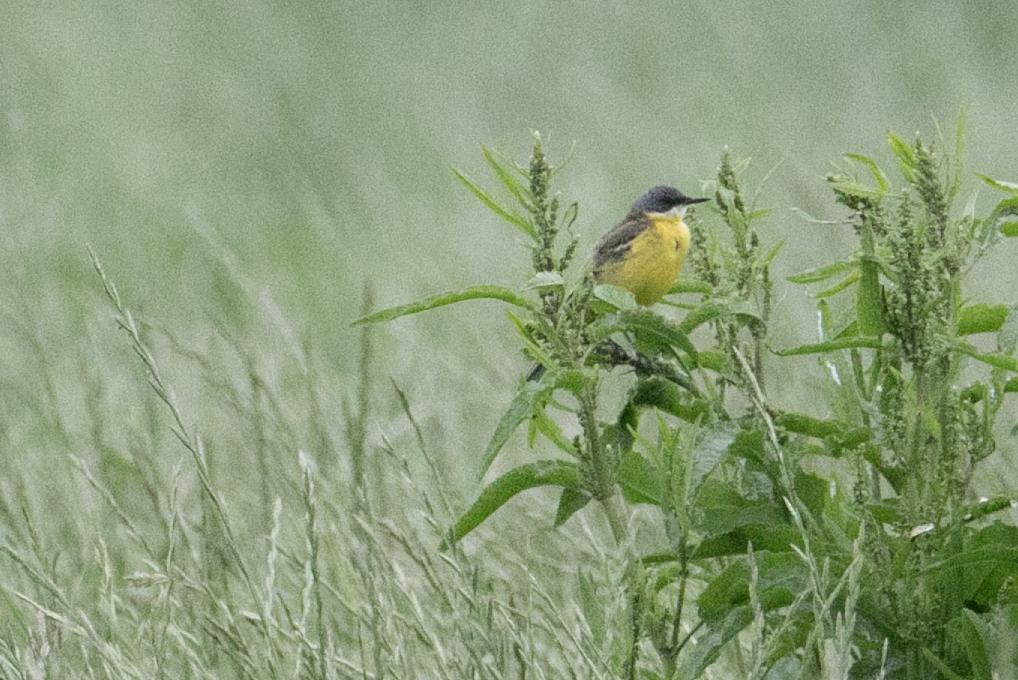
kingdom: Animalia
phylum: Chordata
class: Aves
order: Passeriformes
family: Motacillidae
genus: Motacilla
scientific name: Motacilla flava
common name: Western yellow wagtail
